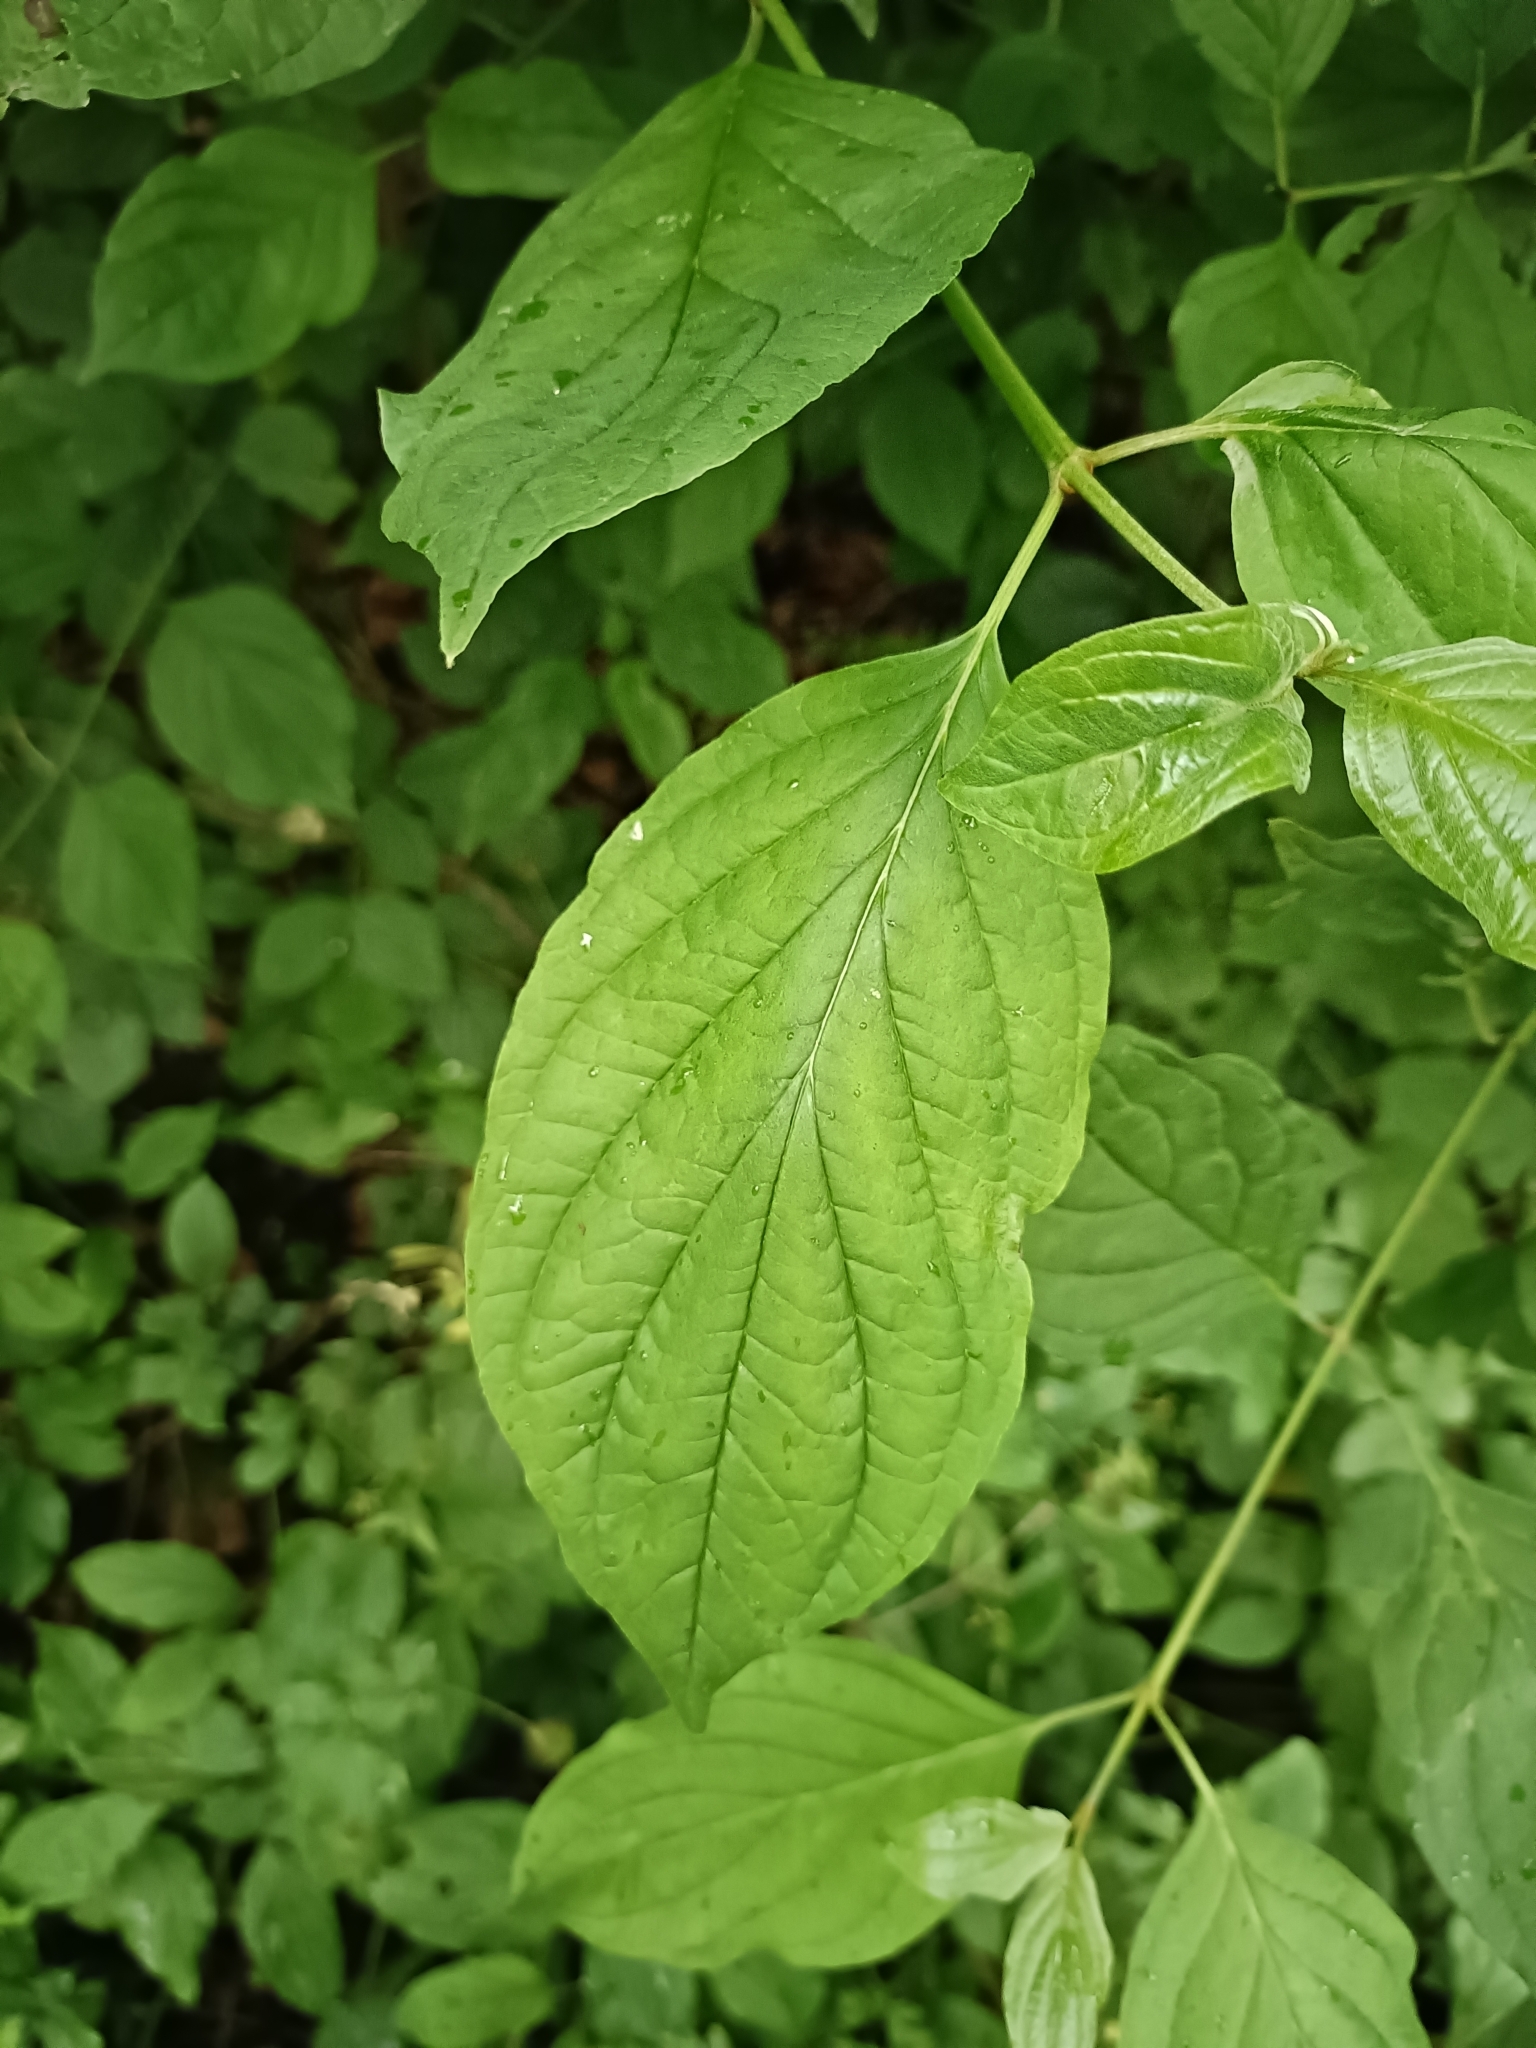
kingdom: Plantae
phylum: Tracheophyta
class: Magnoliopsida
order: Cornales
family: Cornaceae
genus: Cornus
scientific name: Cornus sanguinea
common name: Dogwood
